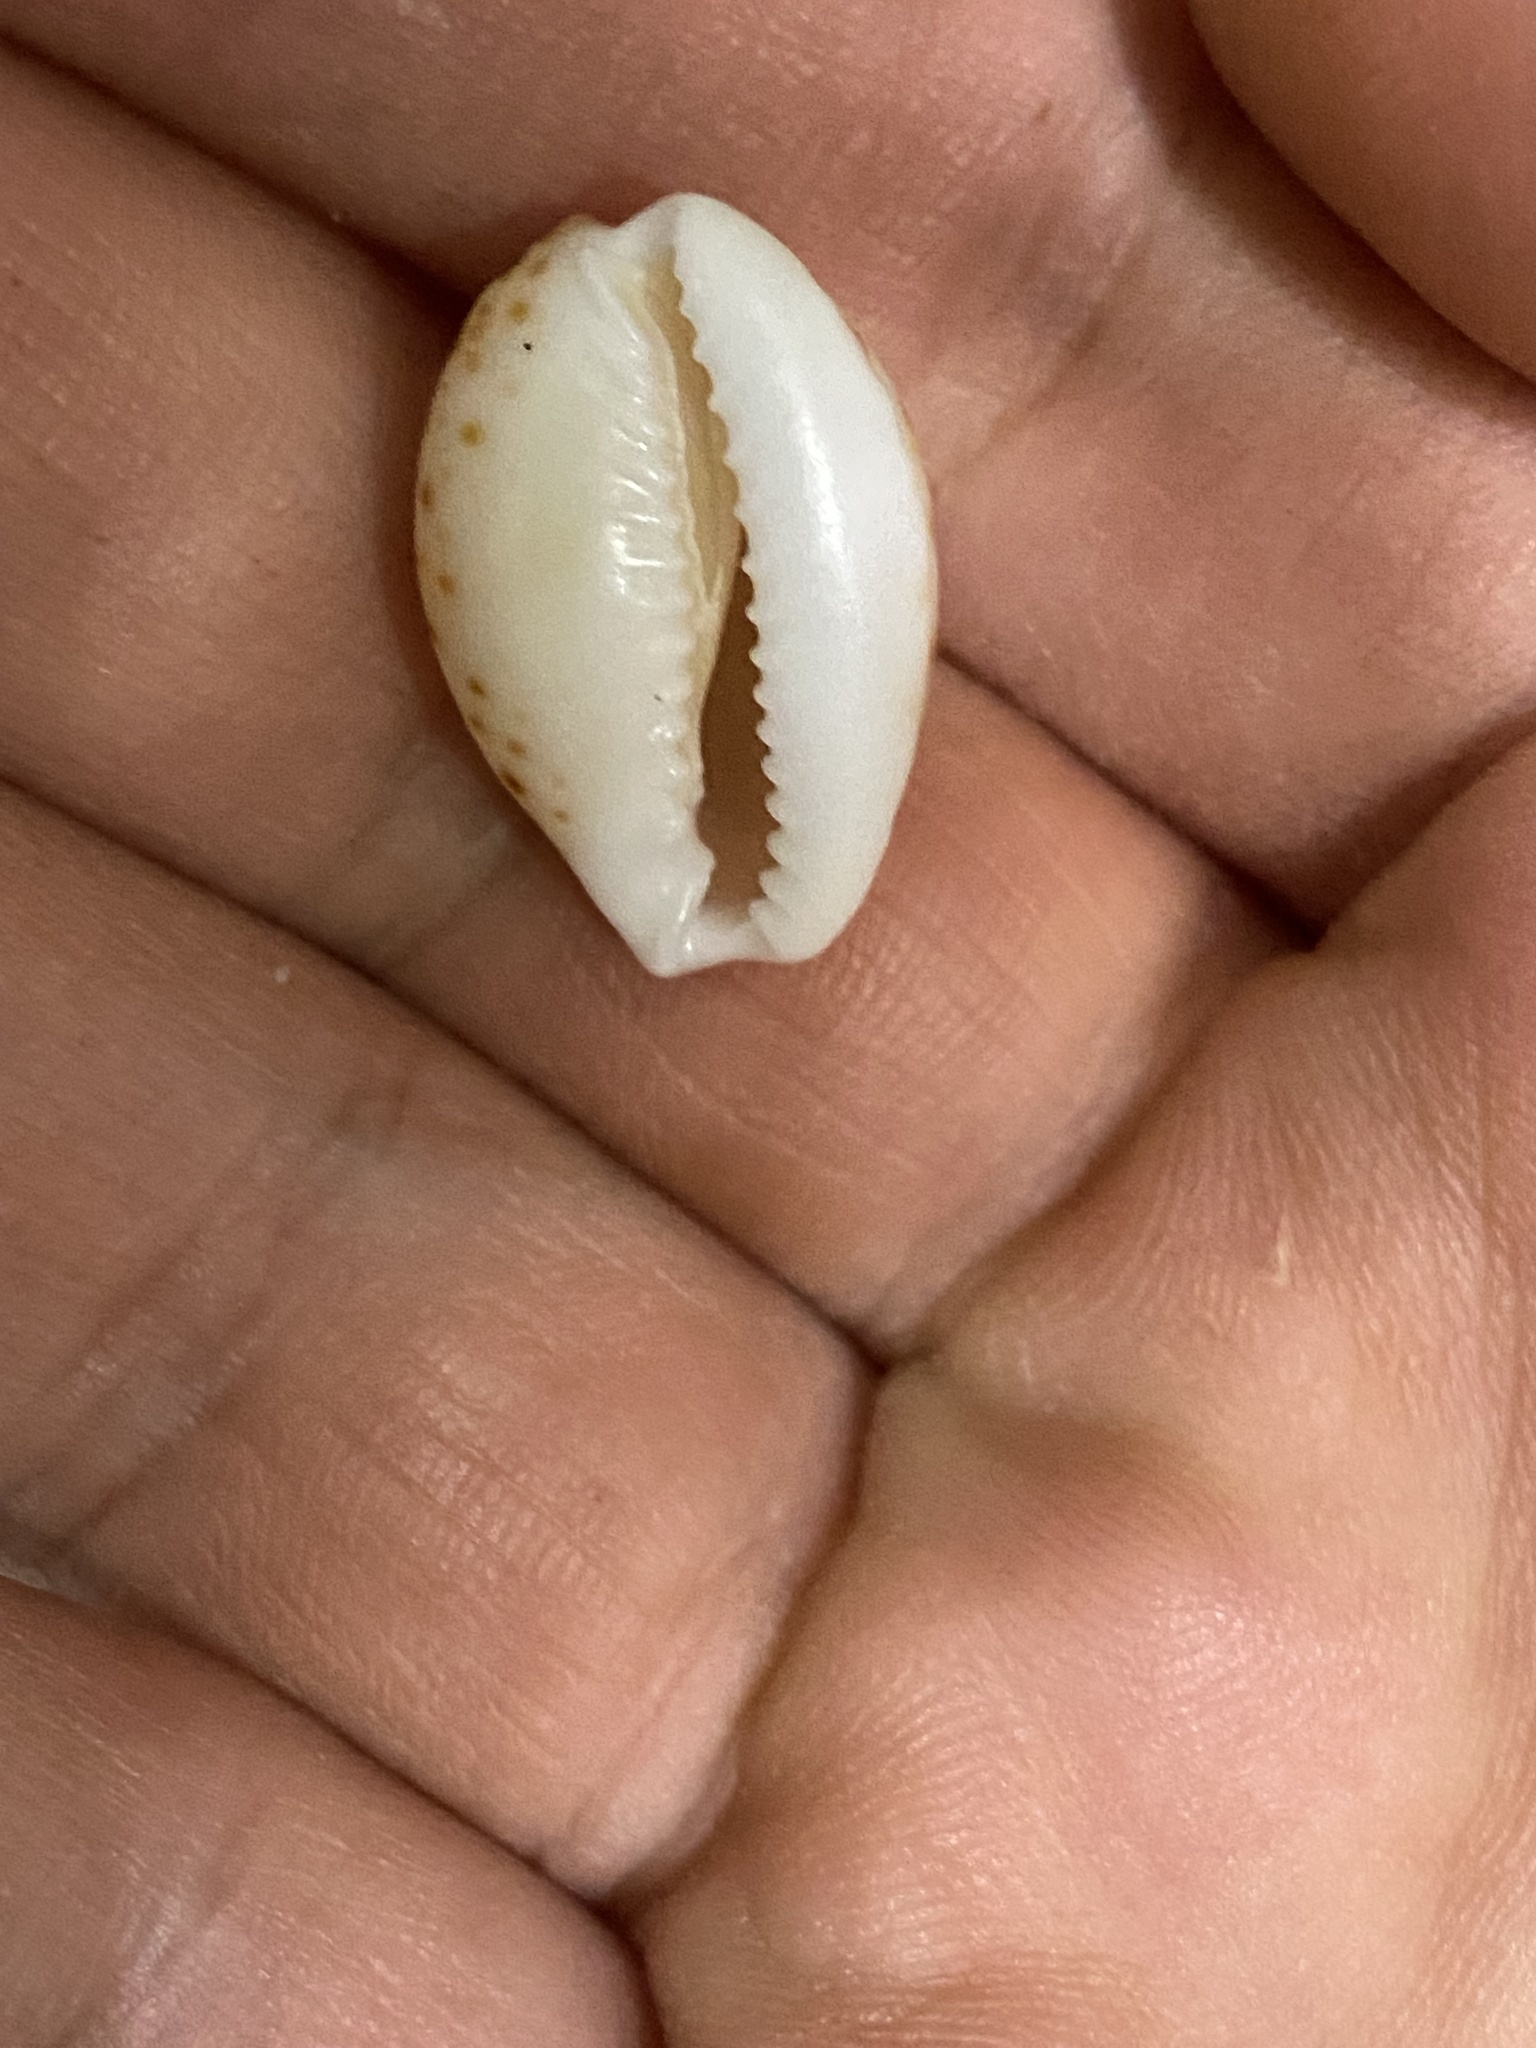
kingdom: Animalia
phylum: Mollusca
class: Gastropoda
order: Littorinimorpha
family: Cypraeidae
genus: Naria
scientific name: Naria acicularis
